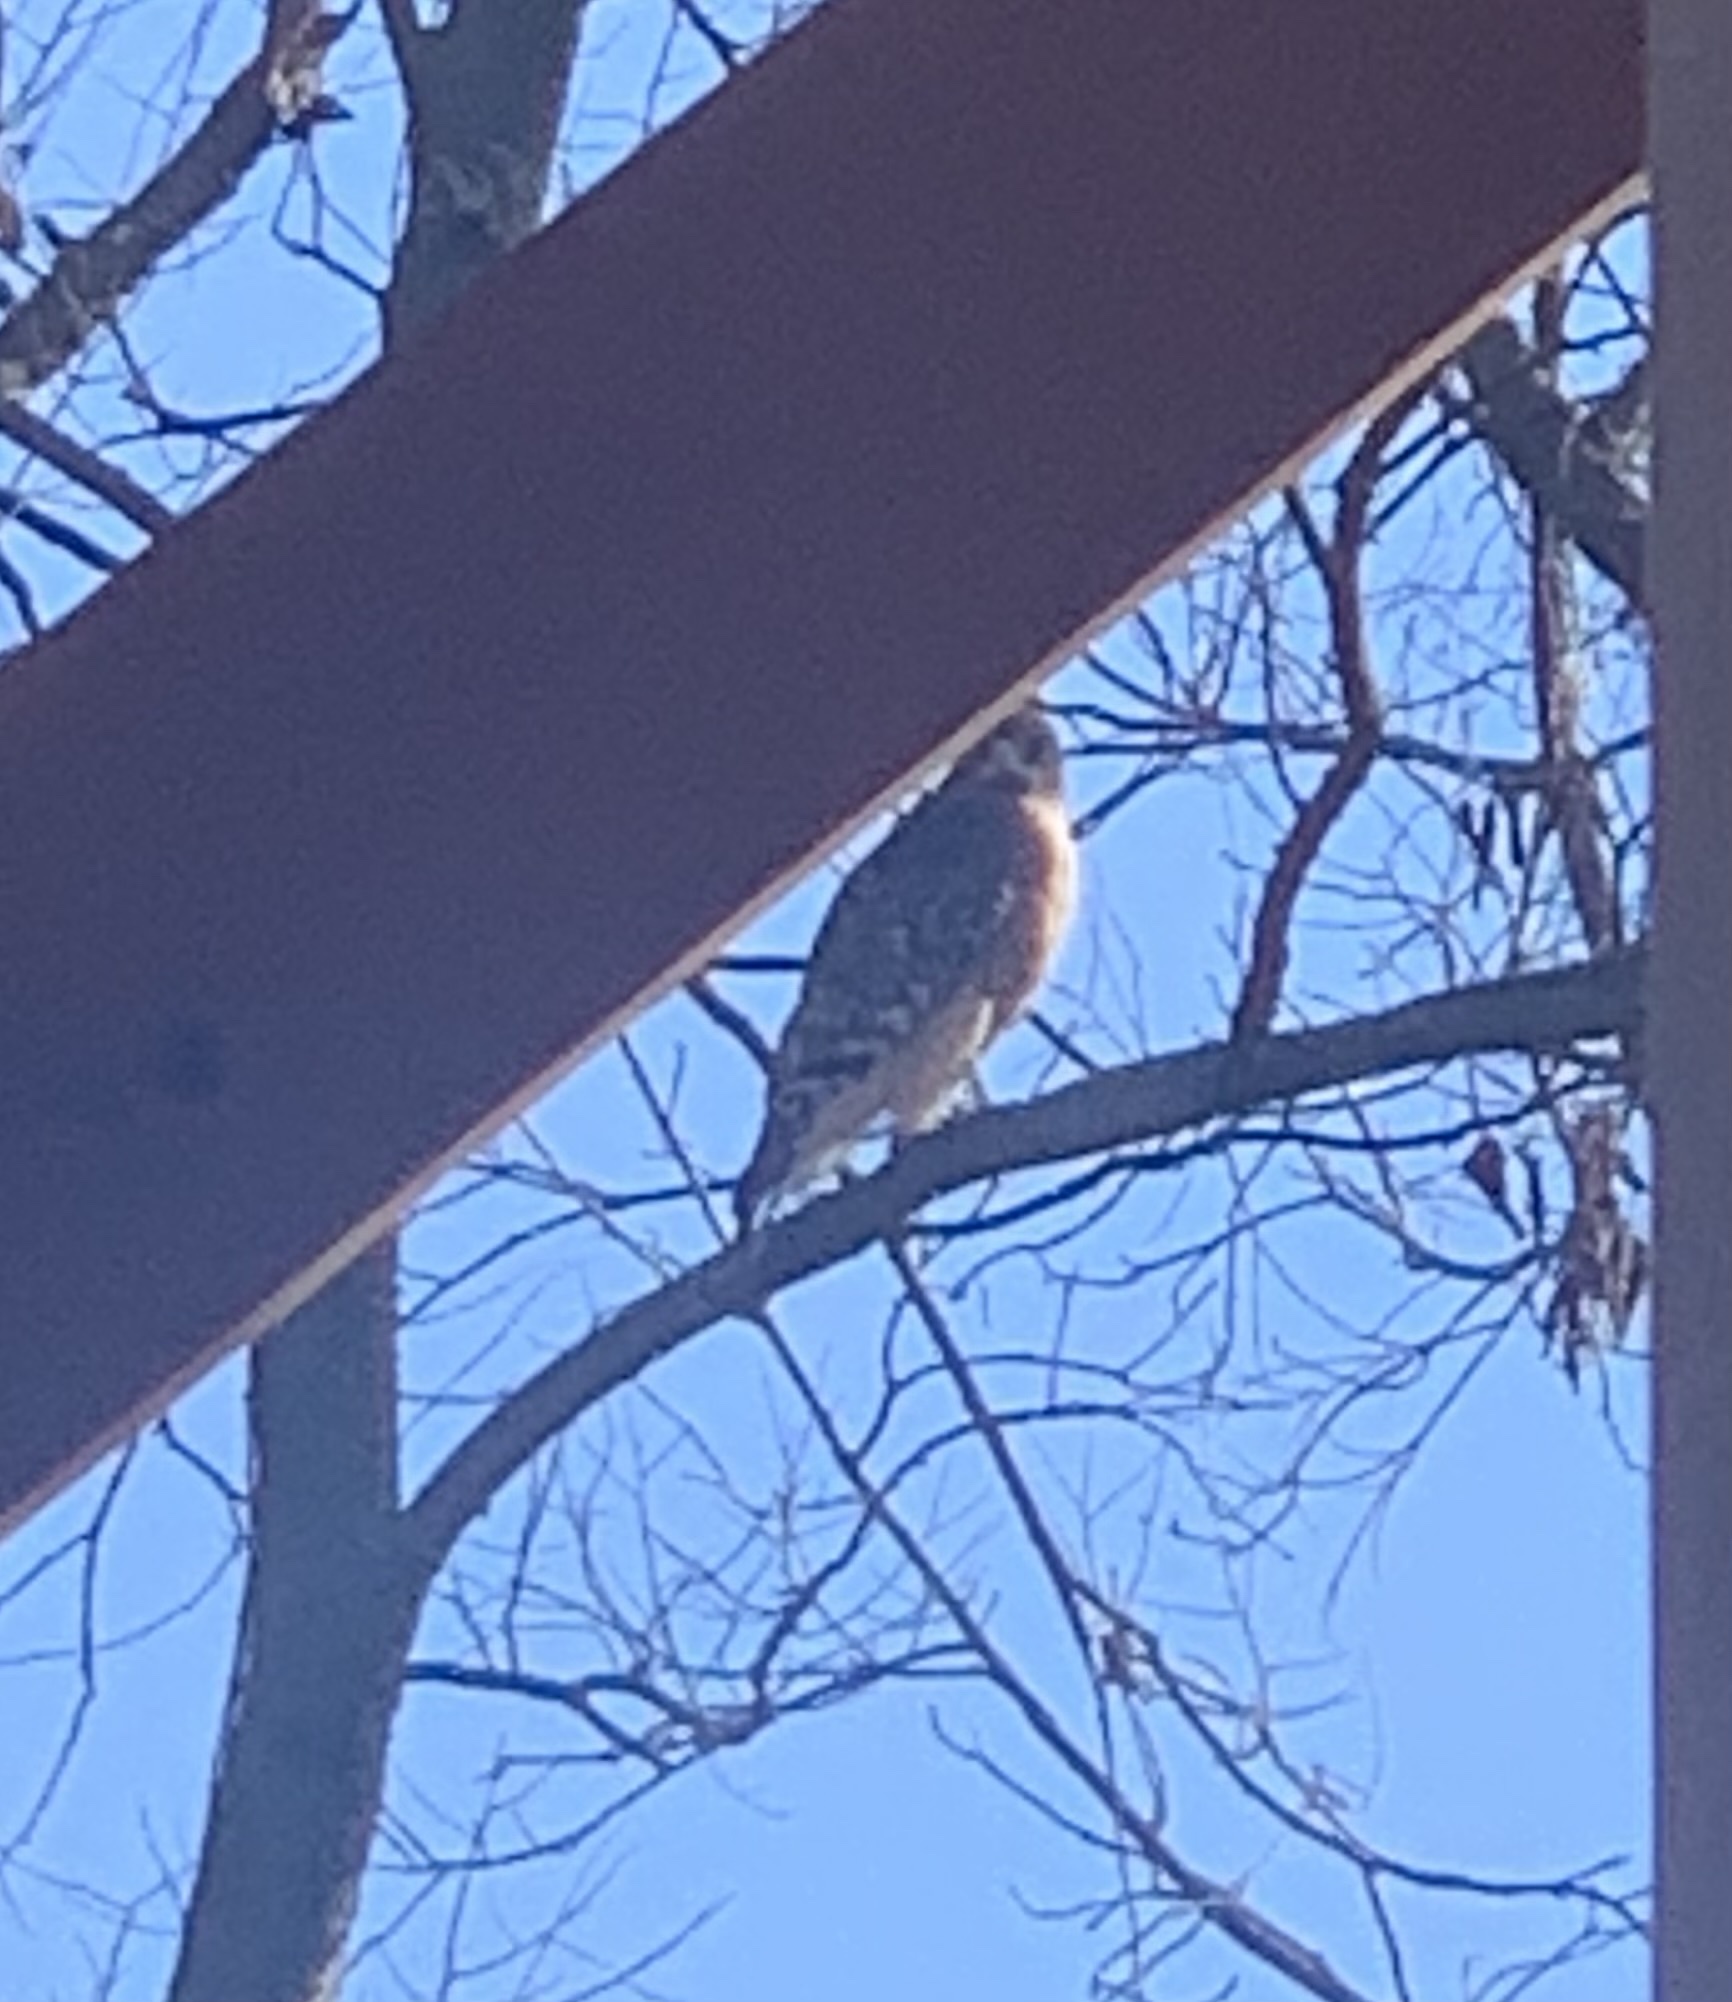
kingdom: Animalia
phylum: Chordata
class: Aves
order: Accipitriformes
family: Accipitridae
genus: Buteo
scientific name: Buteo lineatus
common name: Red-shouldered hawk
